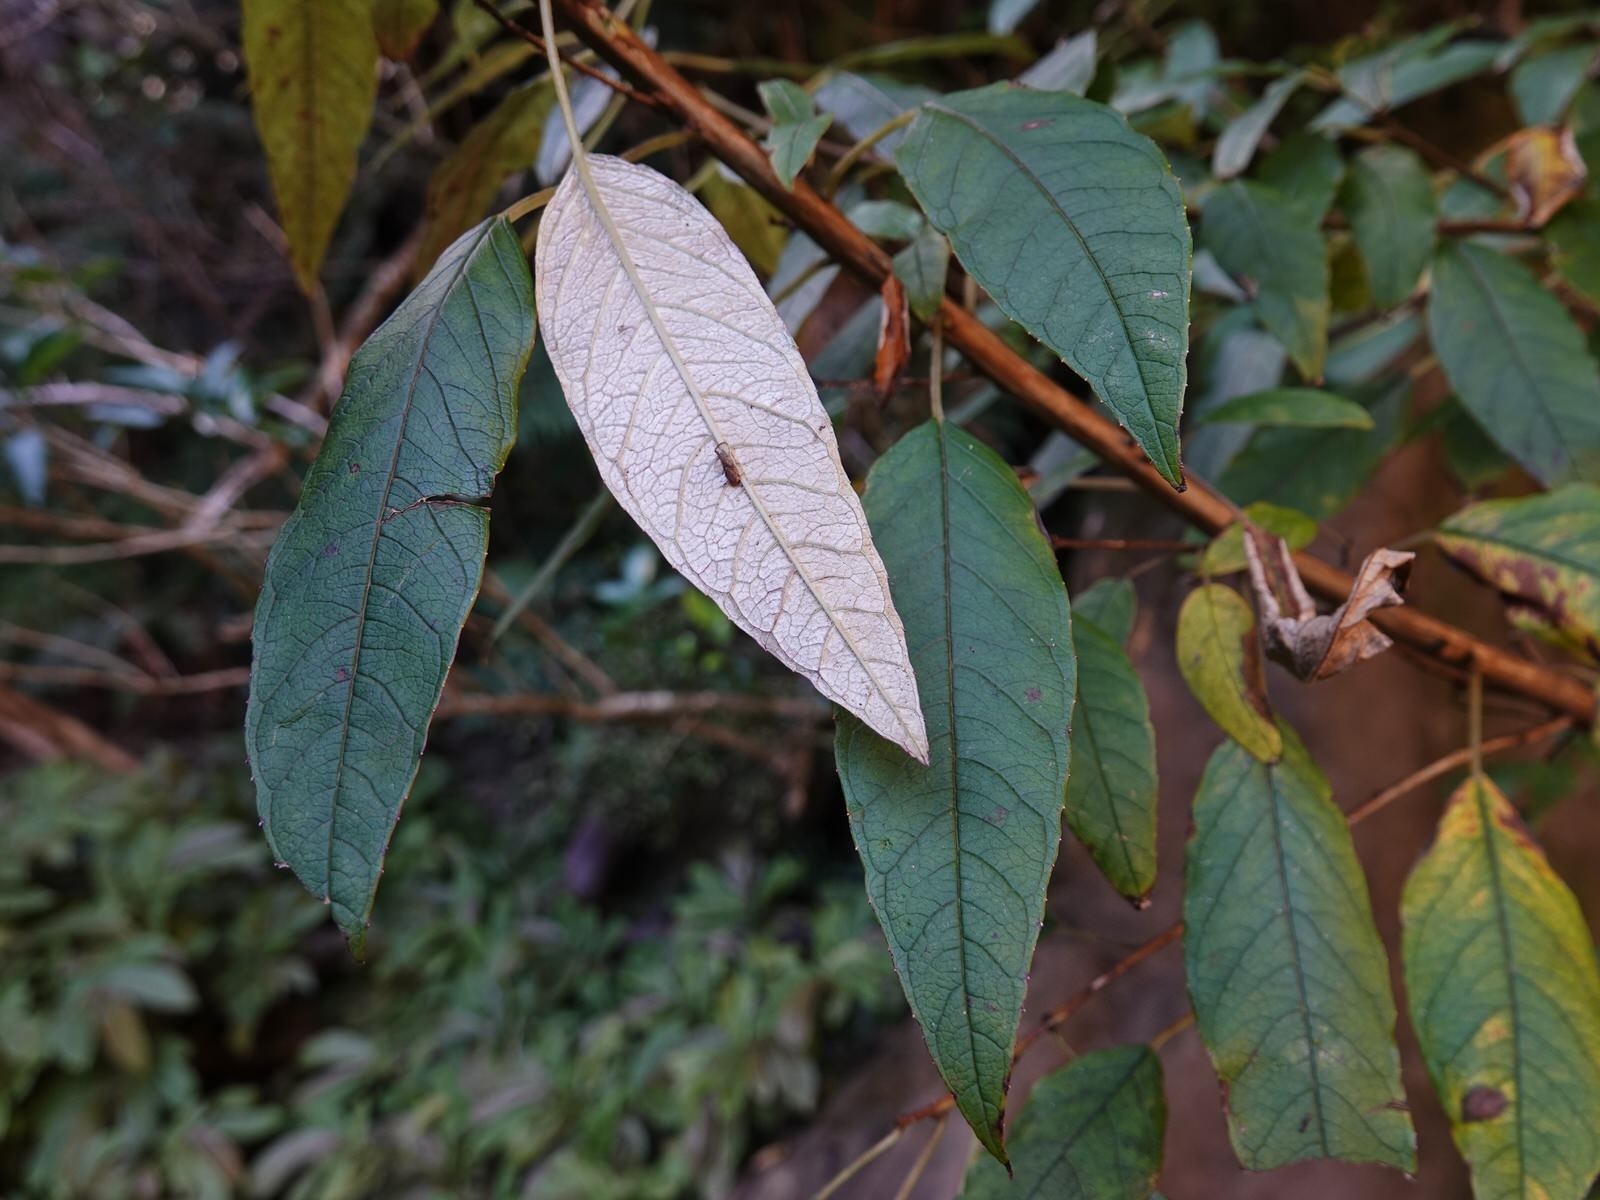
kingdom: Plantae
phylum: Tracheophyta
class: Magnoliopsida
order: Myrtales
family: Onagraceae
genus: Fuchsia
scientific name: Fuchsia excorticata
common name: Tree fuchsia
